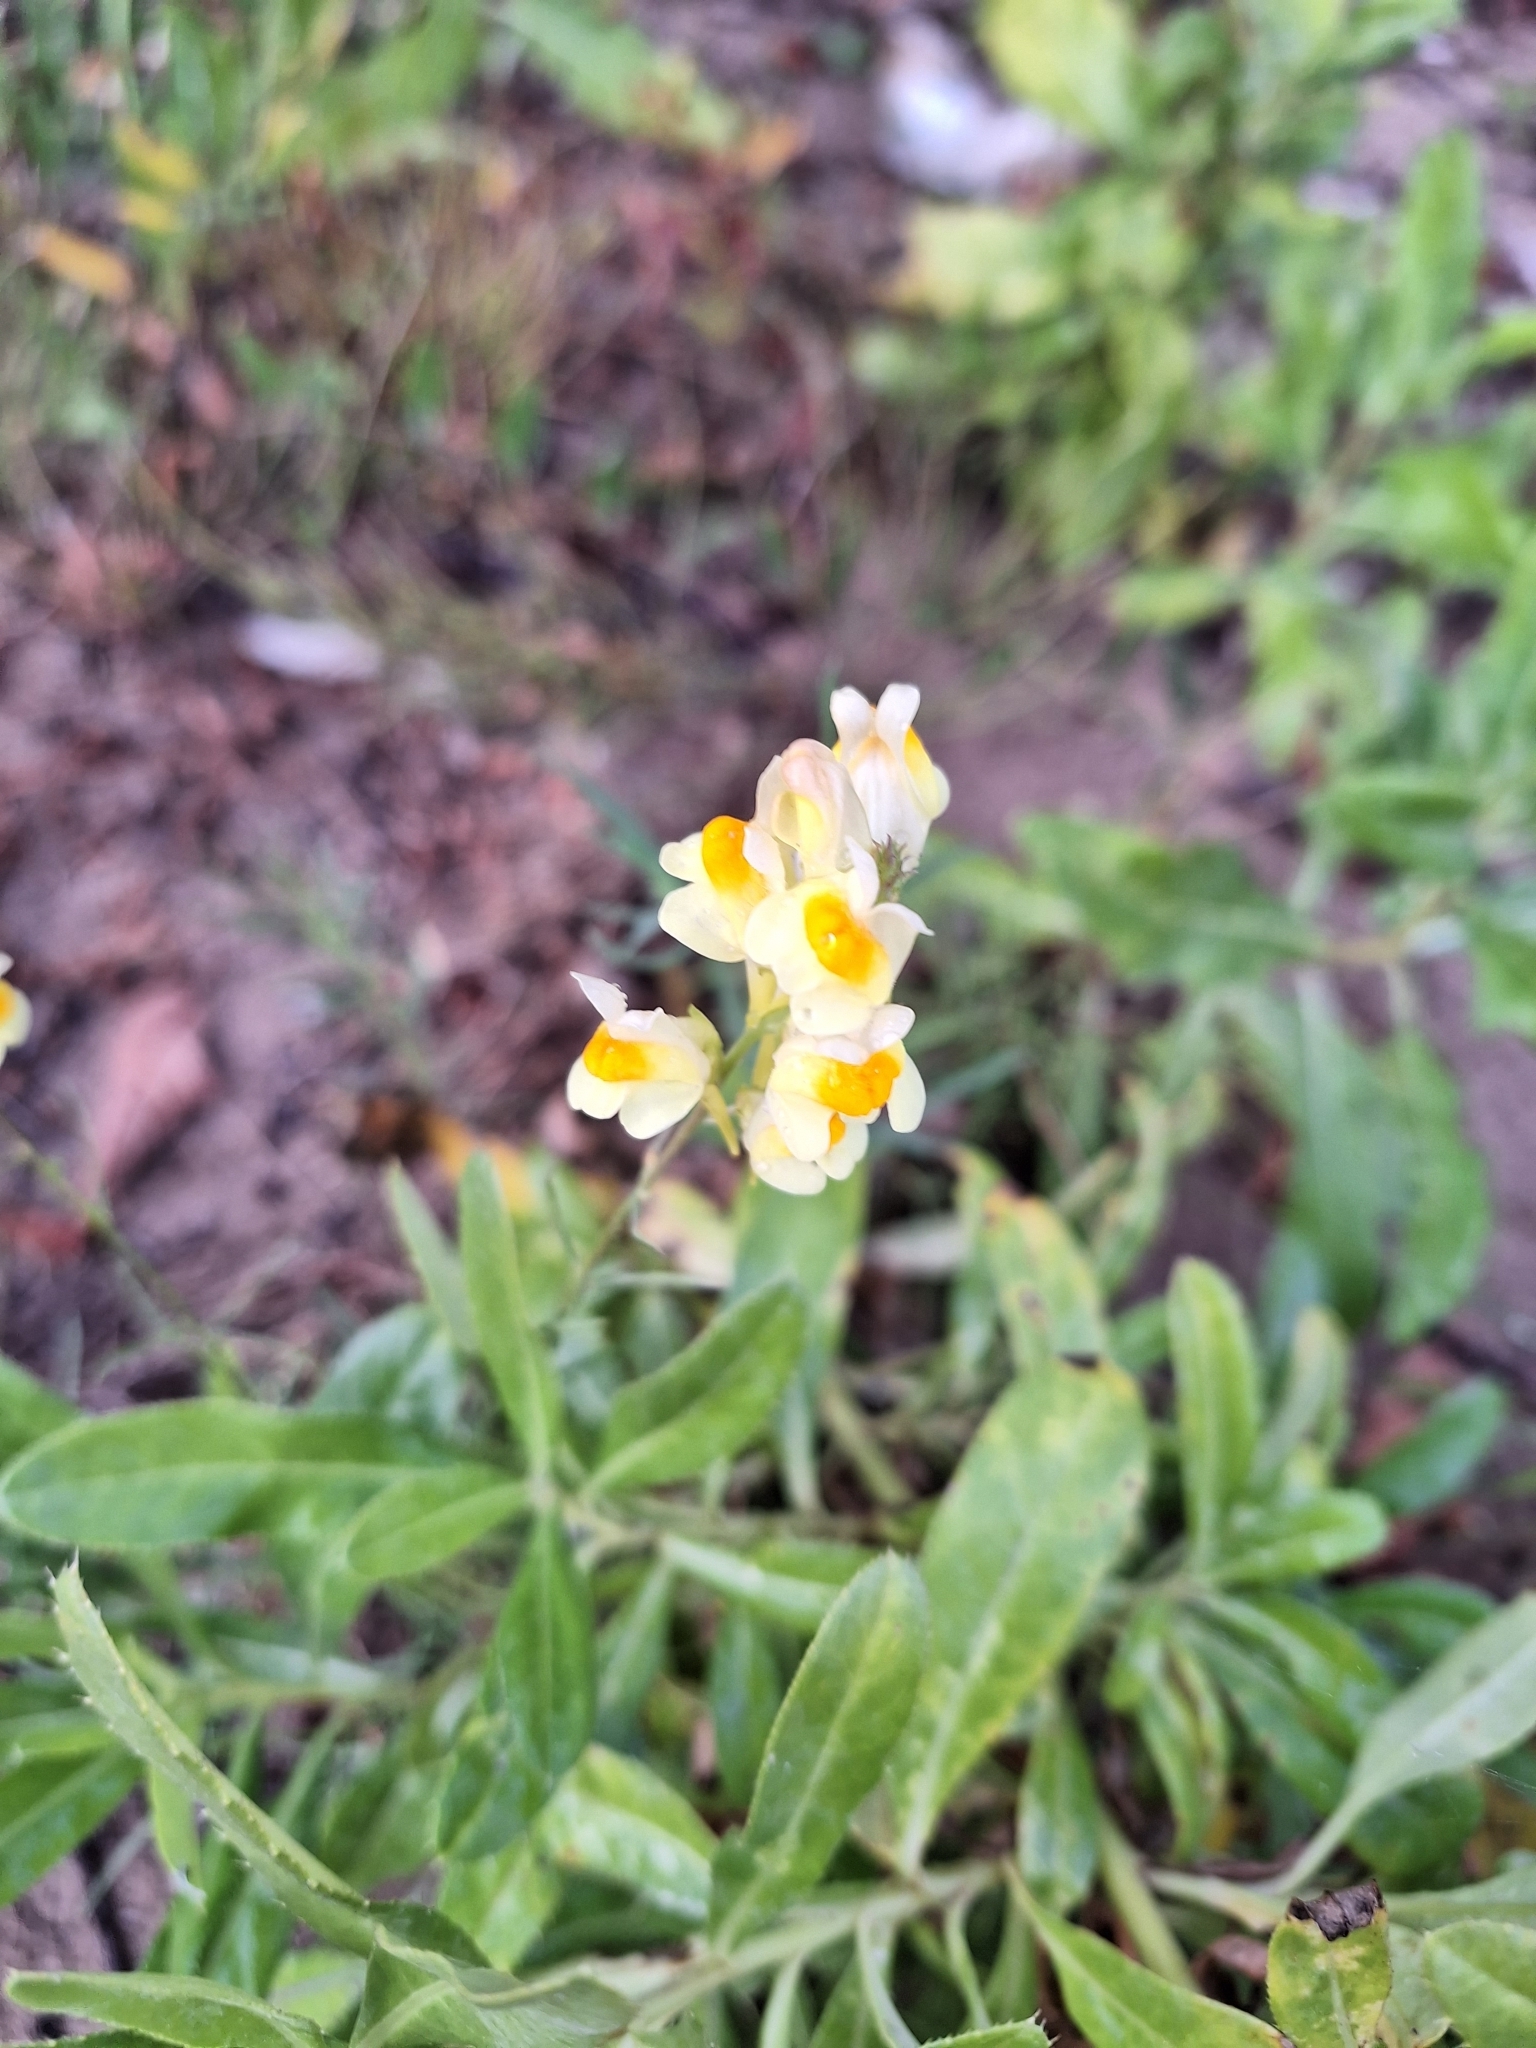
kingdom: Plantae
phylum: Tracheophyta
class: Magnoliopsida
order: Lamiales
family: Plantaginaceae
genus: Linaria
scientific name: Linaria vulgaris
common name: Butter and eggs
